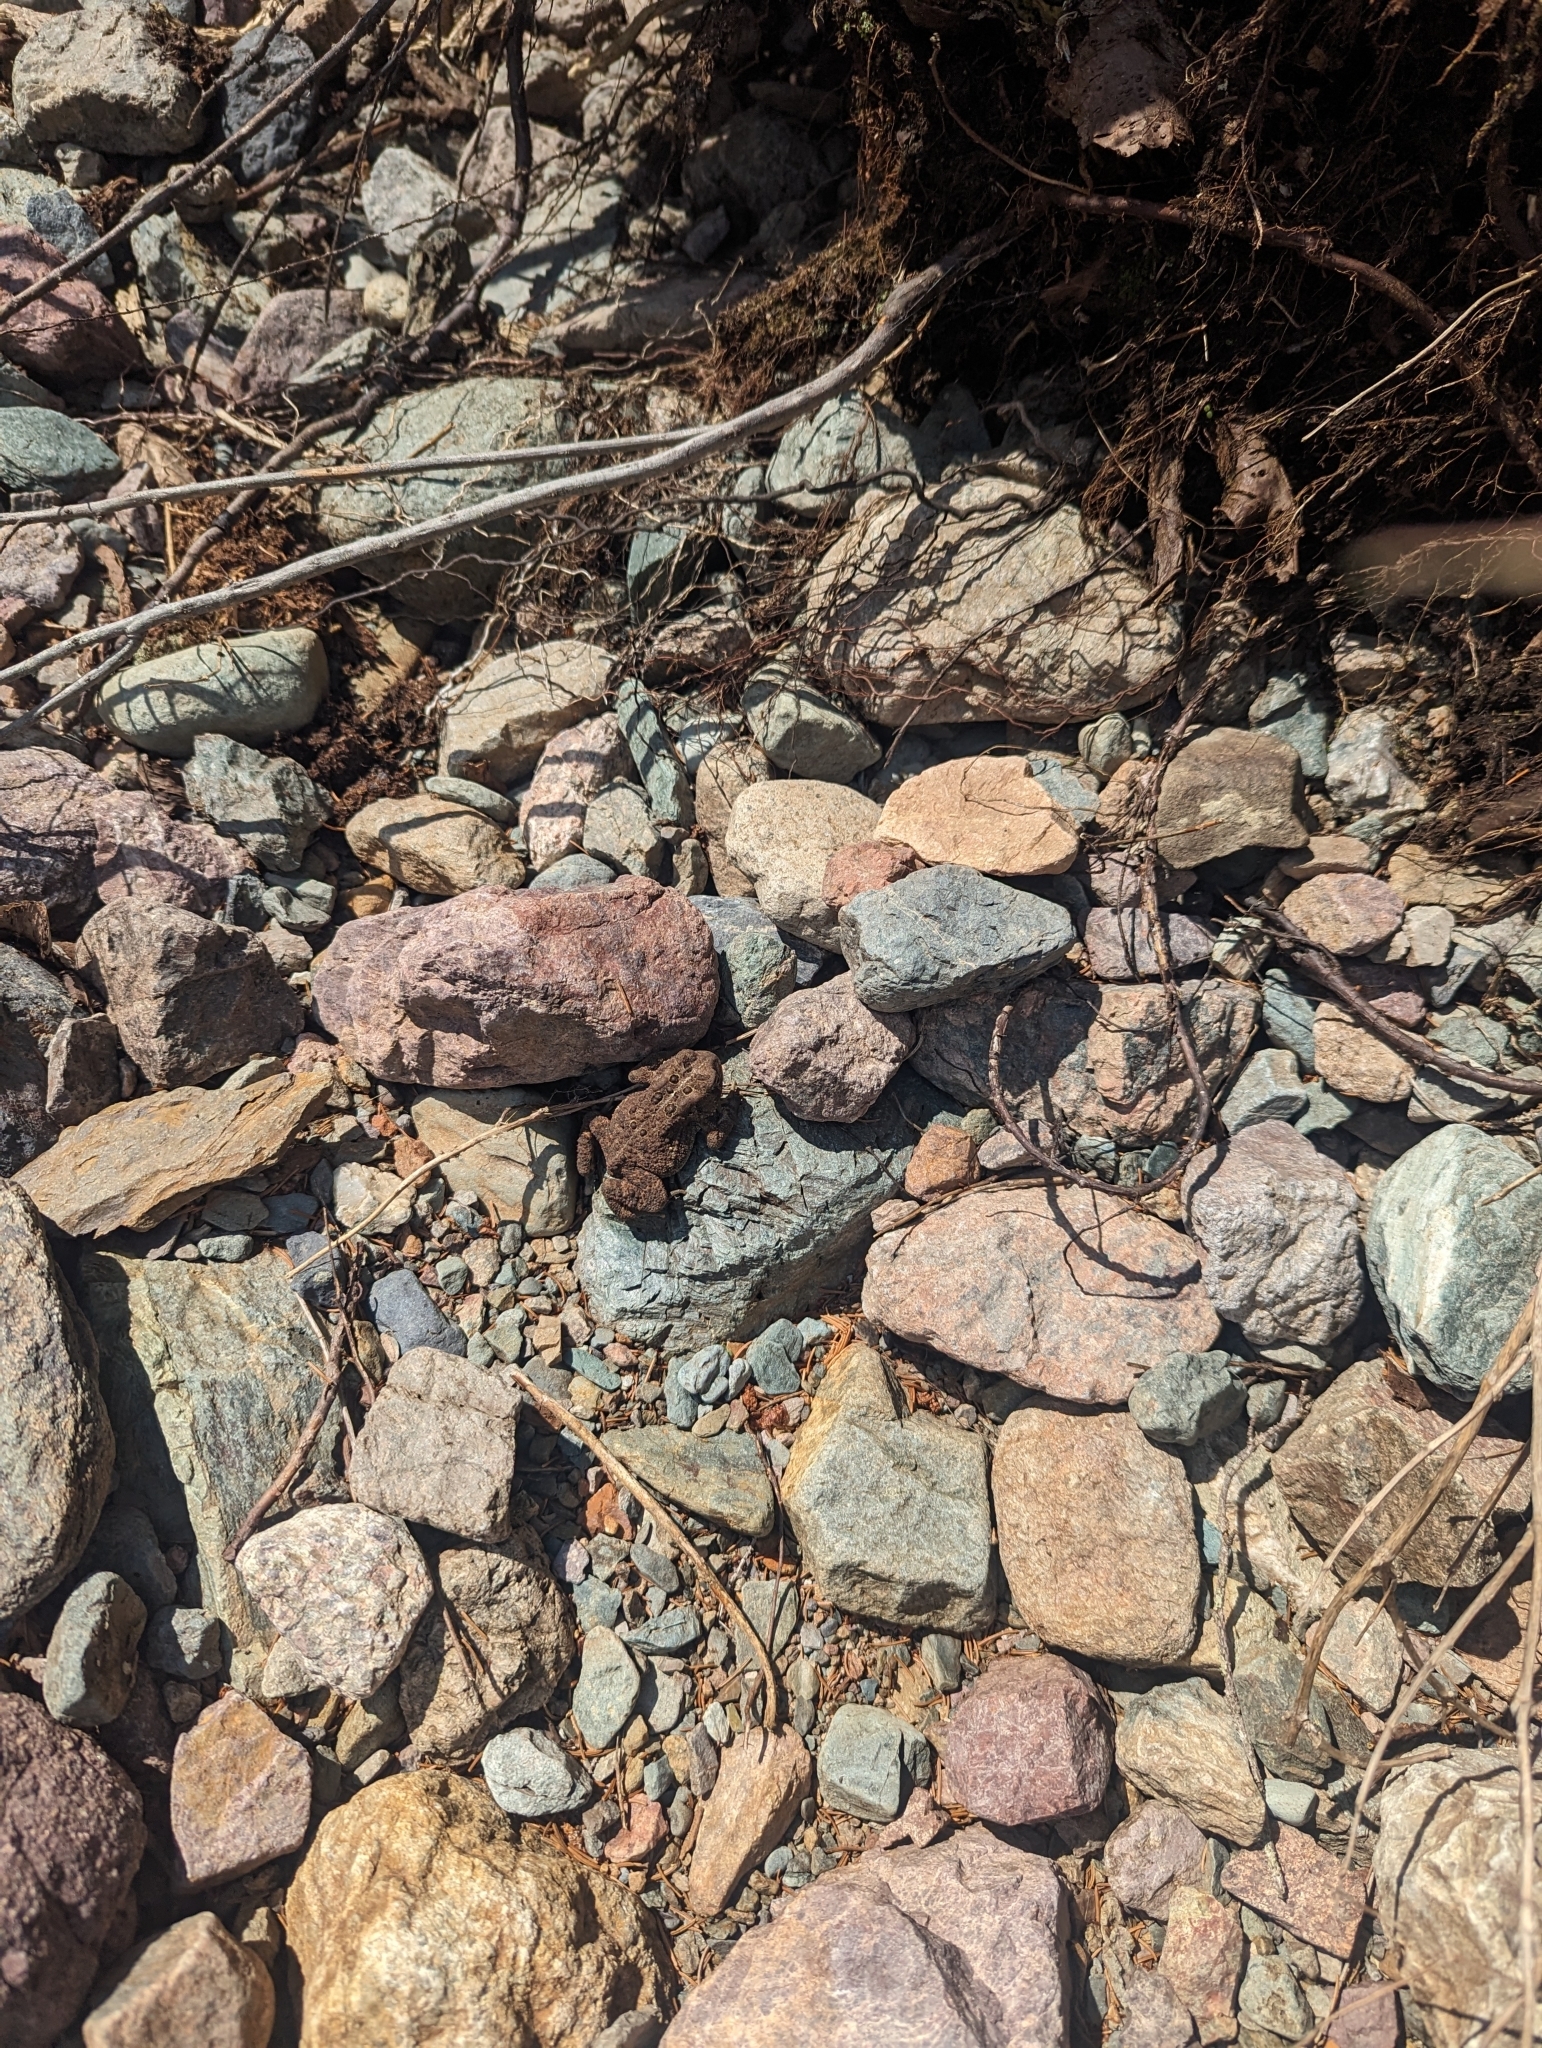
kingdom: Animalia
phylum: Chordata
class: Amphibia
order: Anura
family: Bufonidae
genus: Anaxyrus
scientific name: Anaxyrus americanus
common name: American toad
